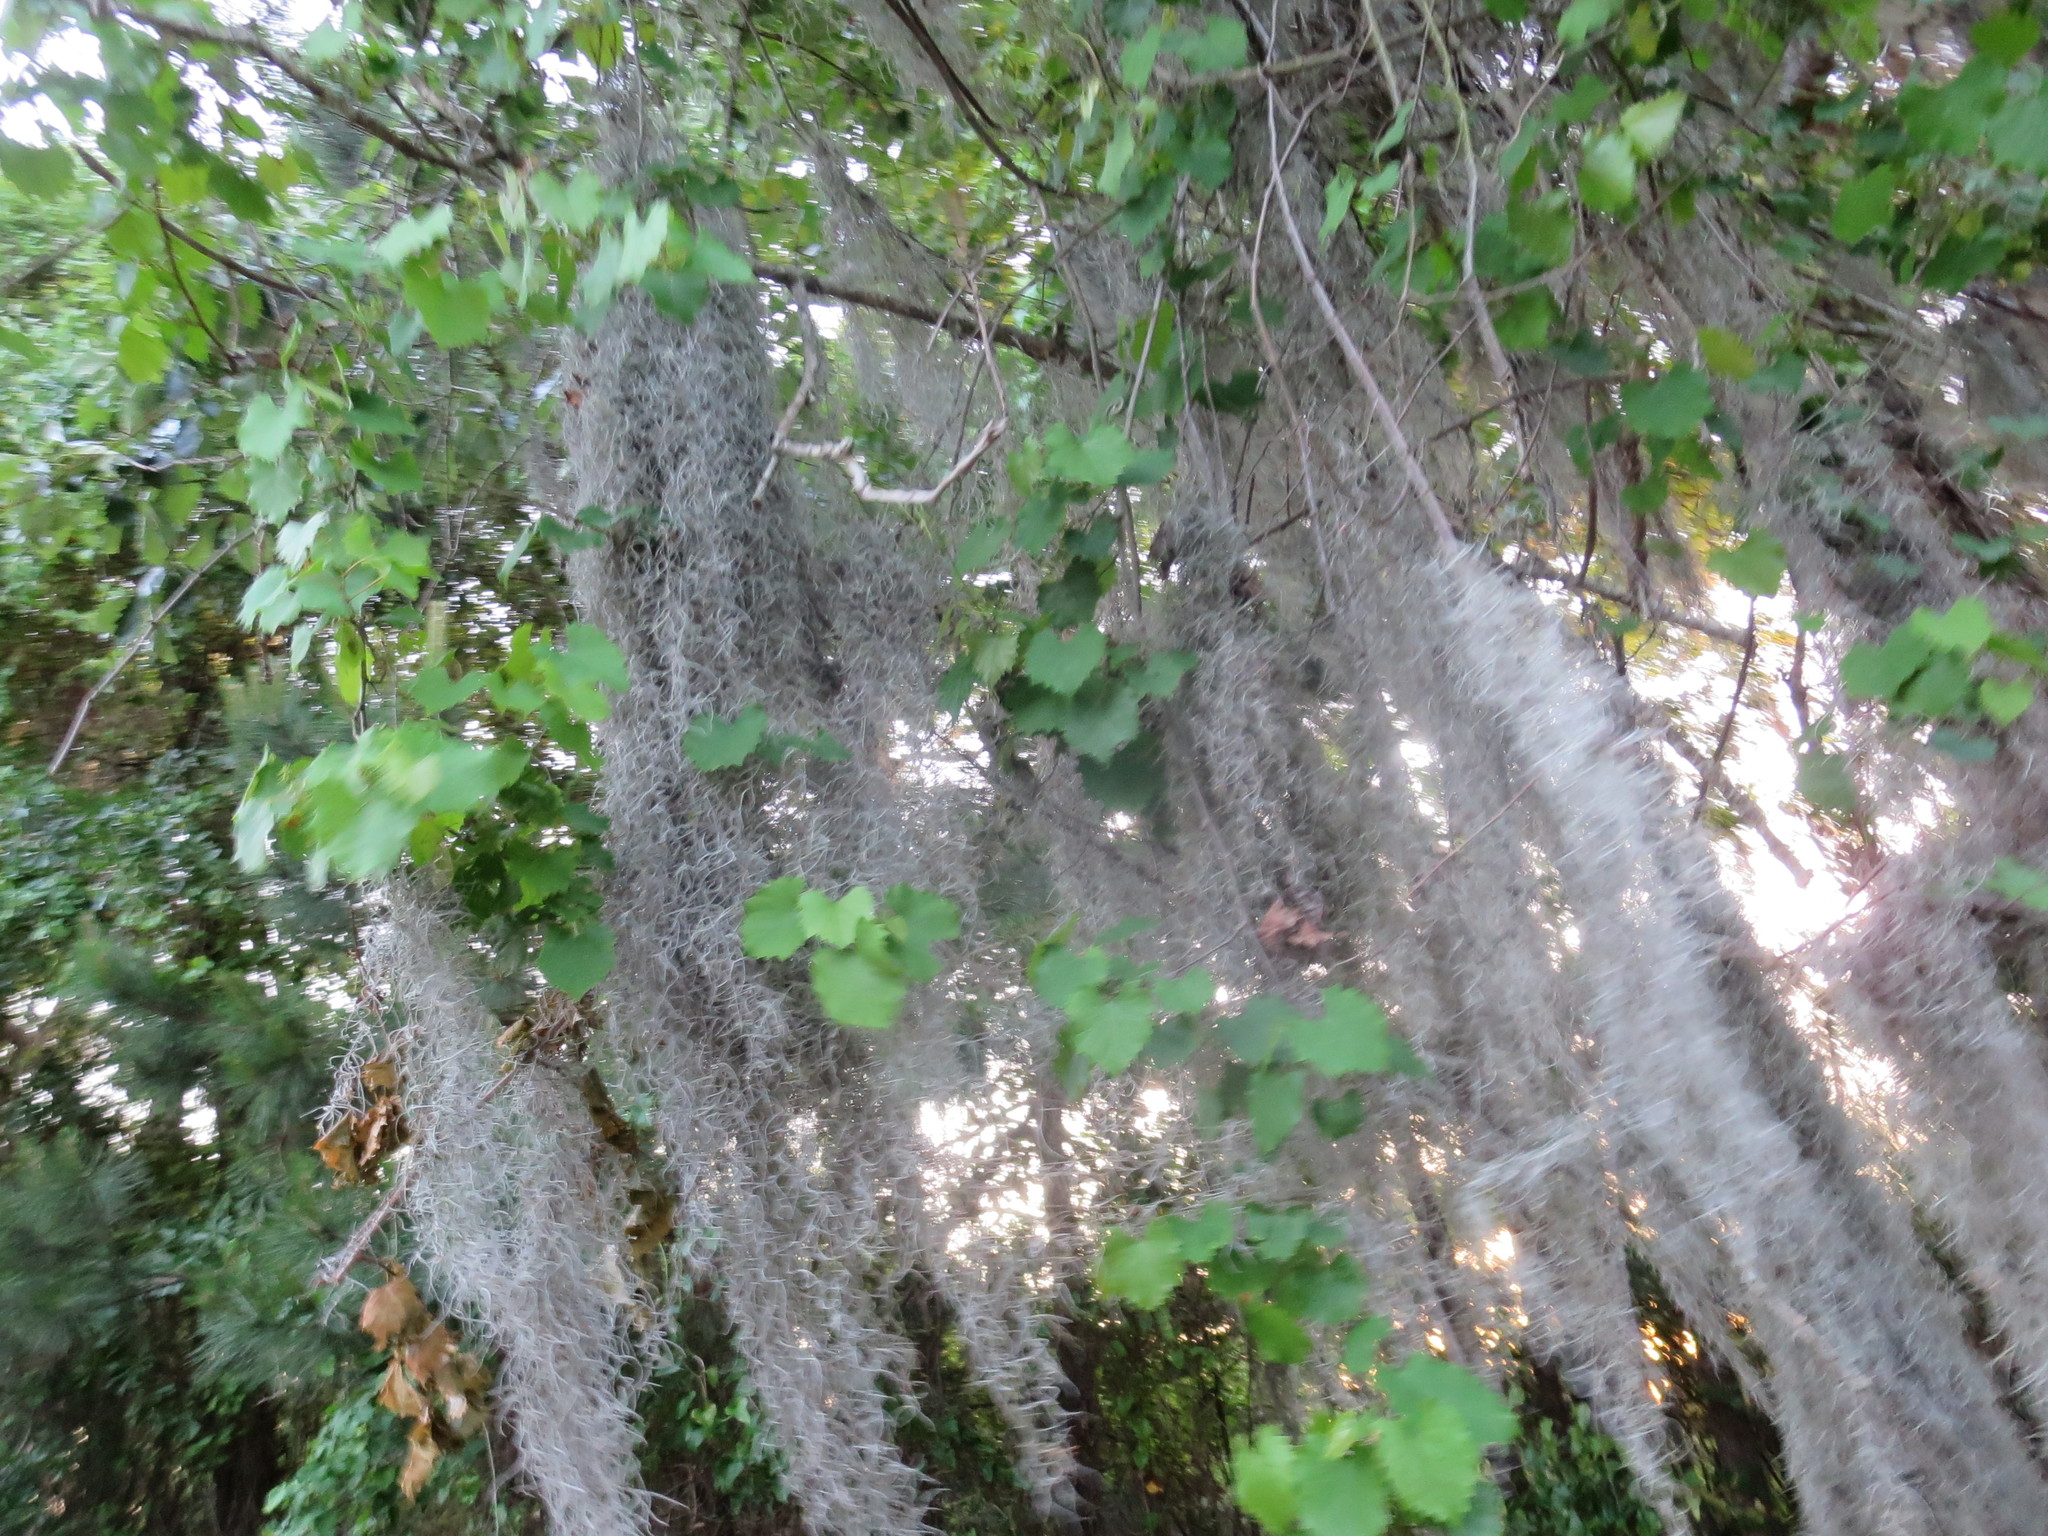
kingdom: Plantae
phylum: Tracheophyta
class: Liliopsida
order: Poales
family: Bromeliaceae
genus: Tillandsia
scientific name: Tillandsia usneoides
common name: Spanish moss
